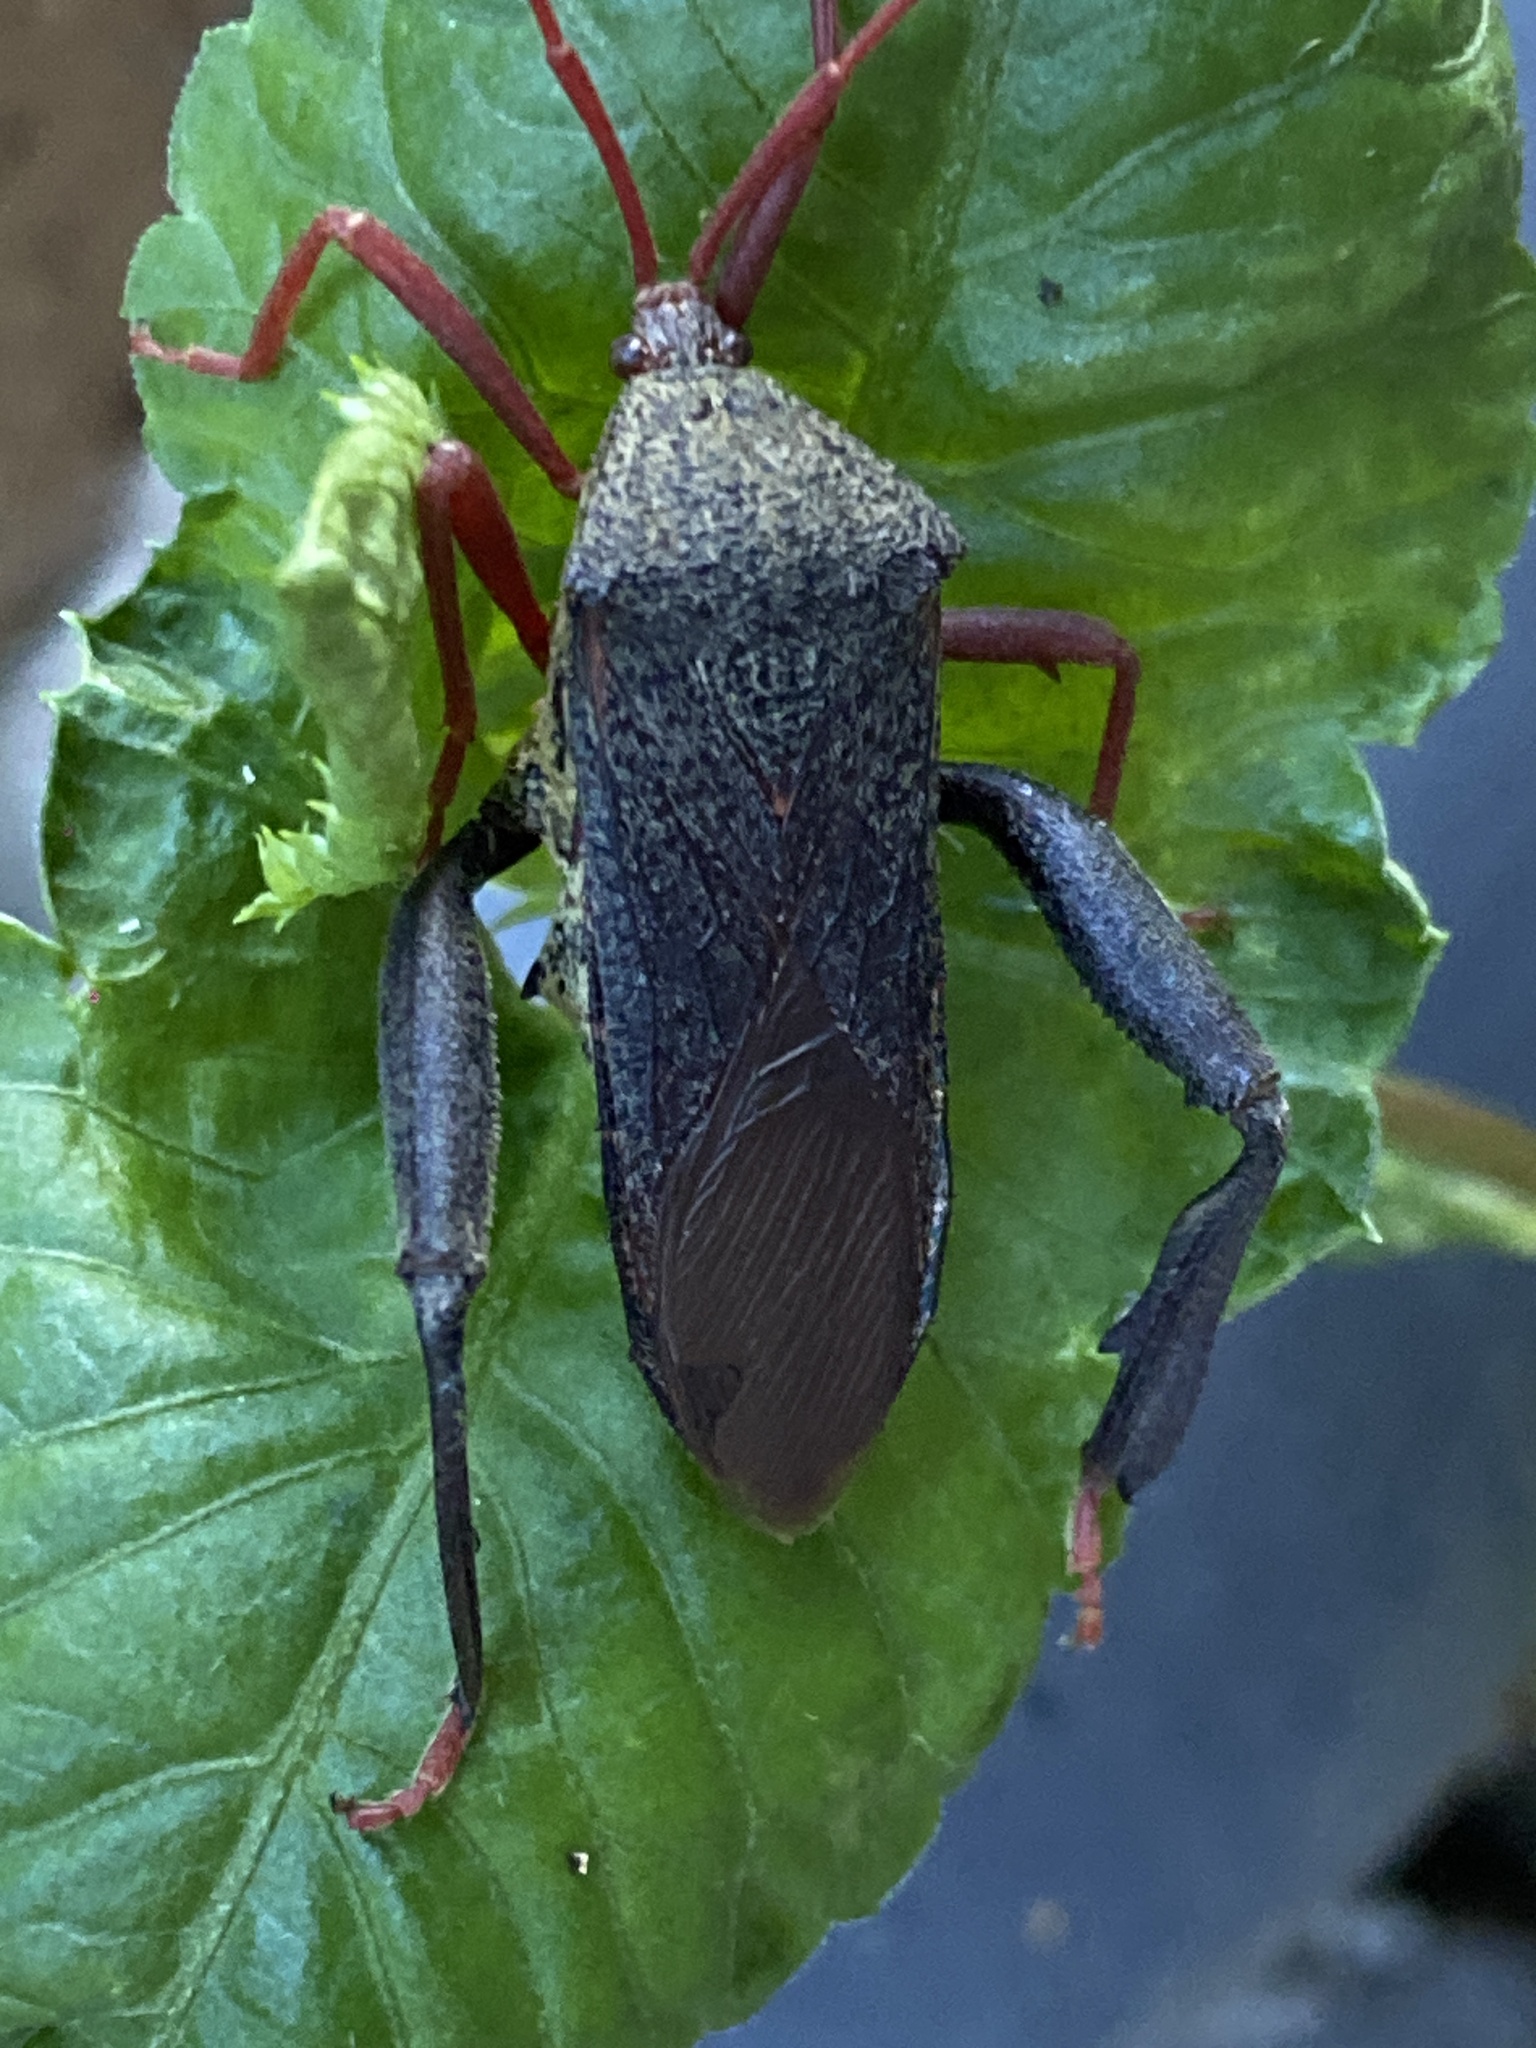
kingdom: Animalia
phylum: Arthropoda
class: Insecta
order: Hemiptera
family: Coreidae
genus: Pternistria
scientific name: Pternistria bispina
